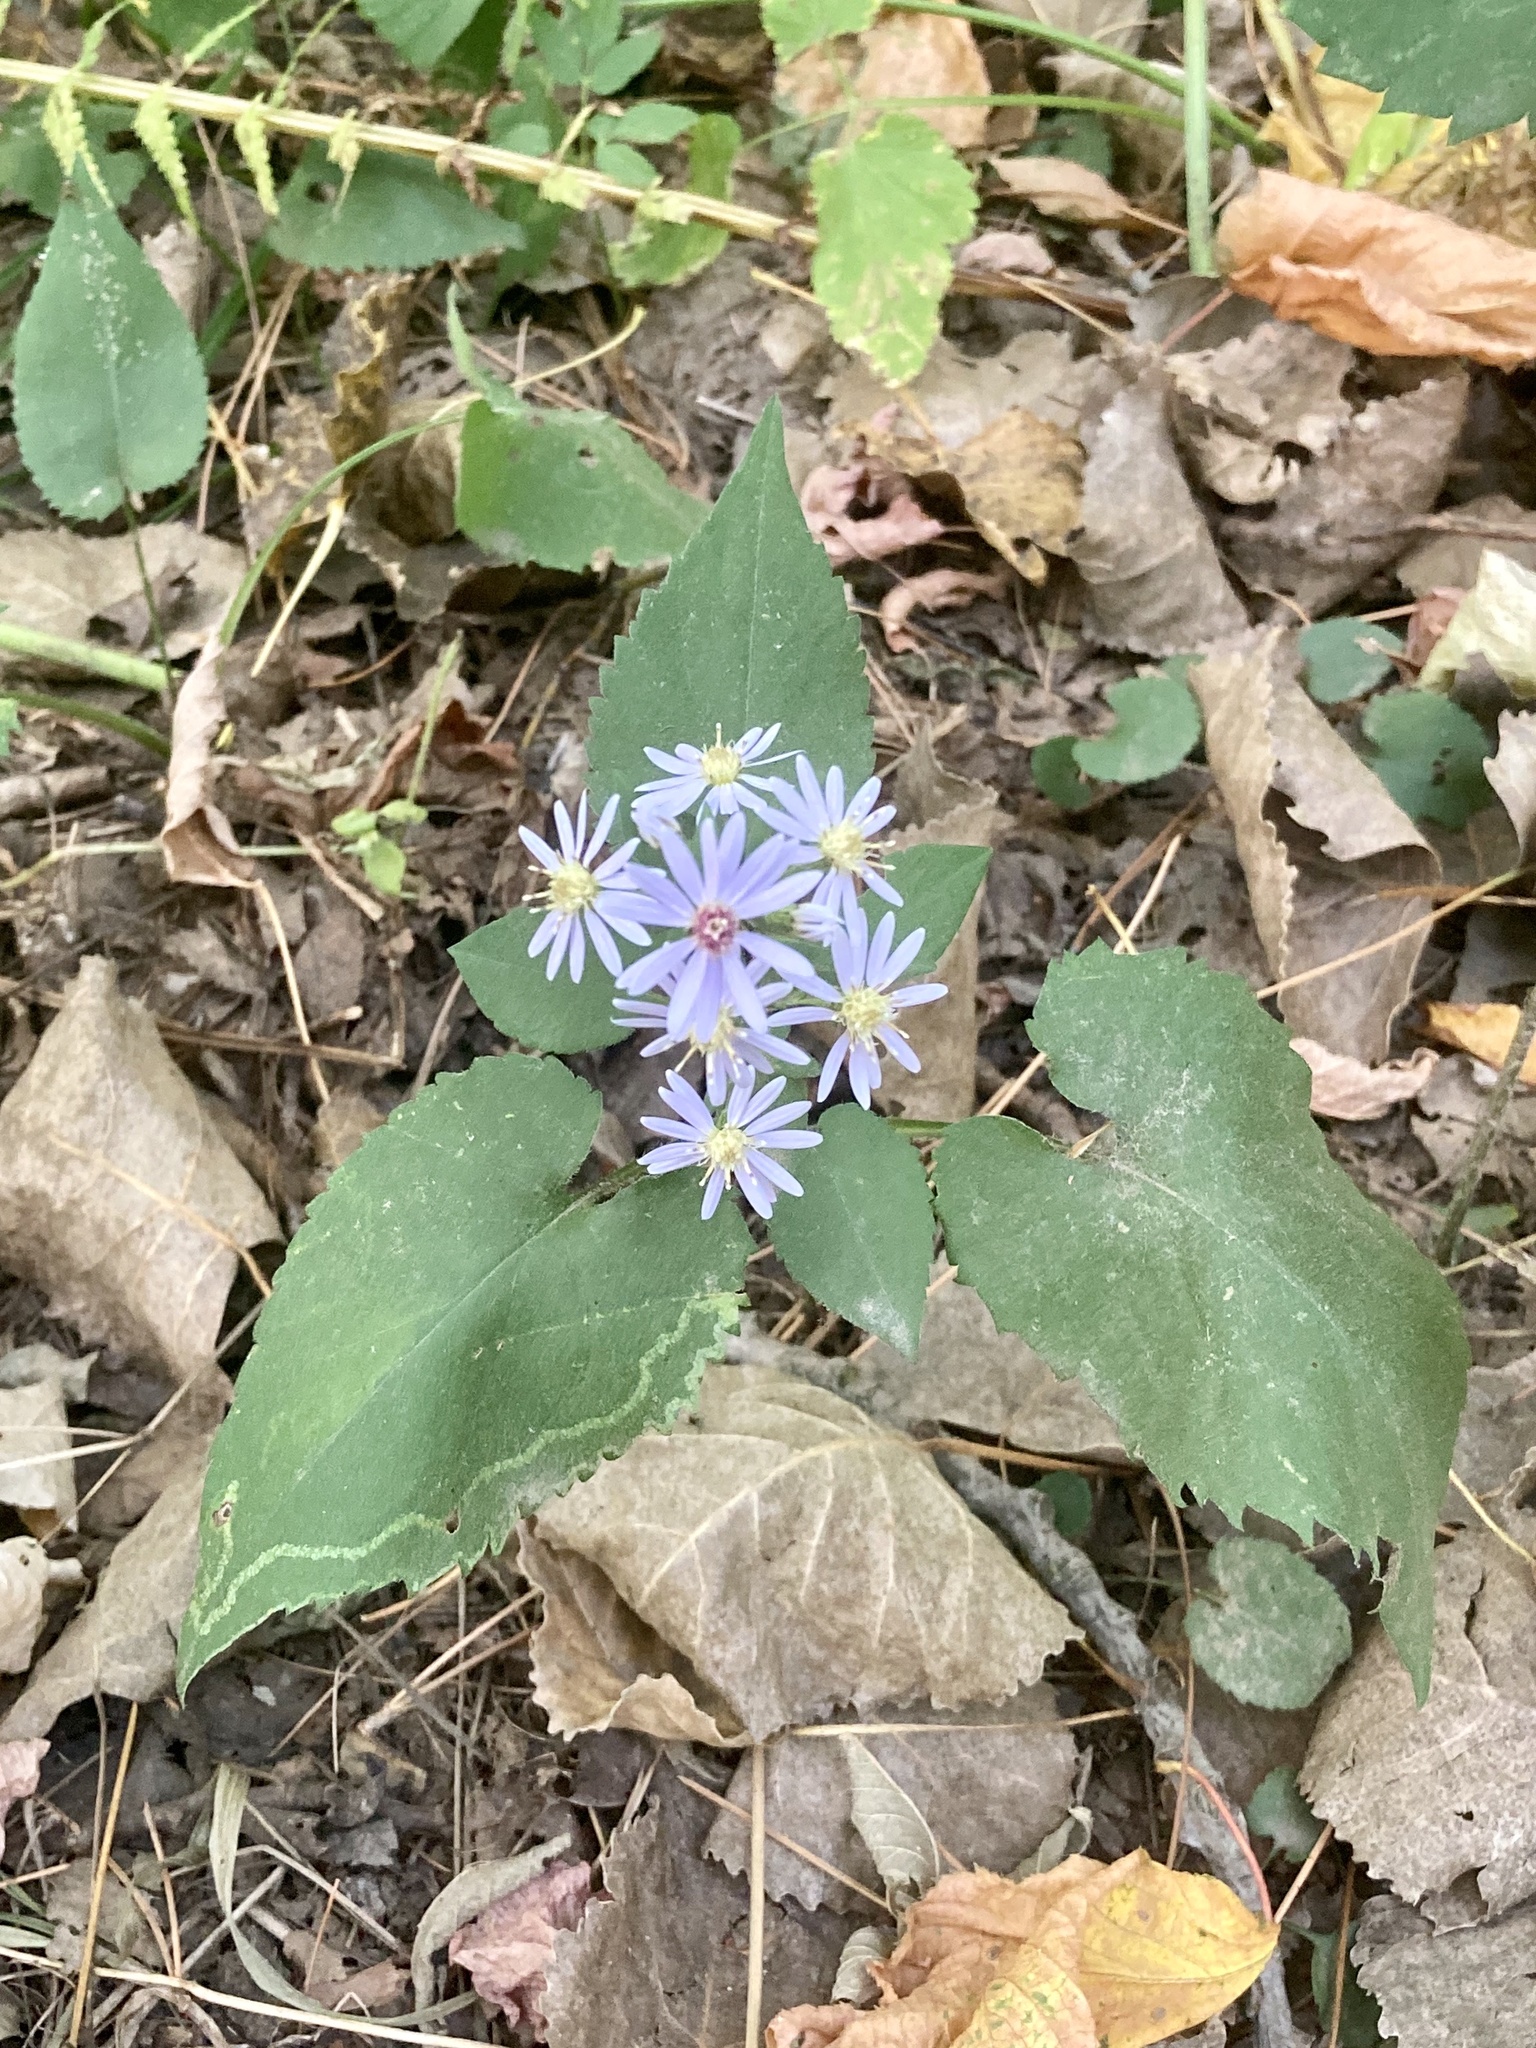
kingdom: Plantae
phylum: Tracheophyta
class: Magnoliopsida
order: Asterales
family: Asteraceae
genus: Symphyotrichum
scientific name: Symphyotrichum cordifolium
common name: Beeweed
